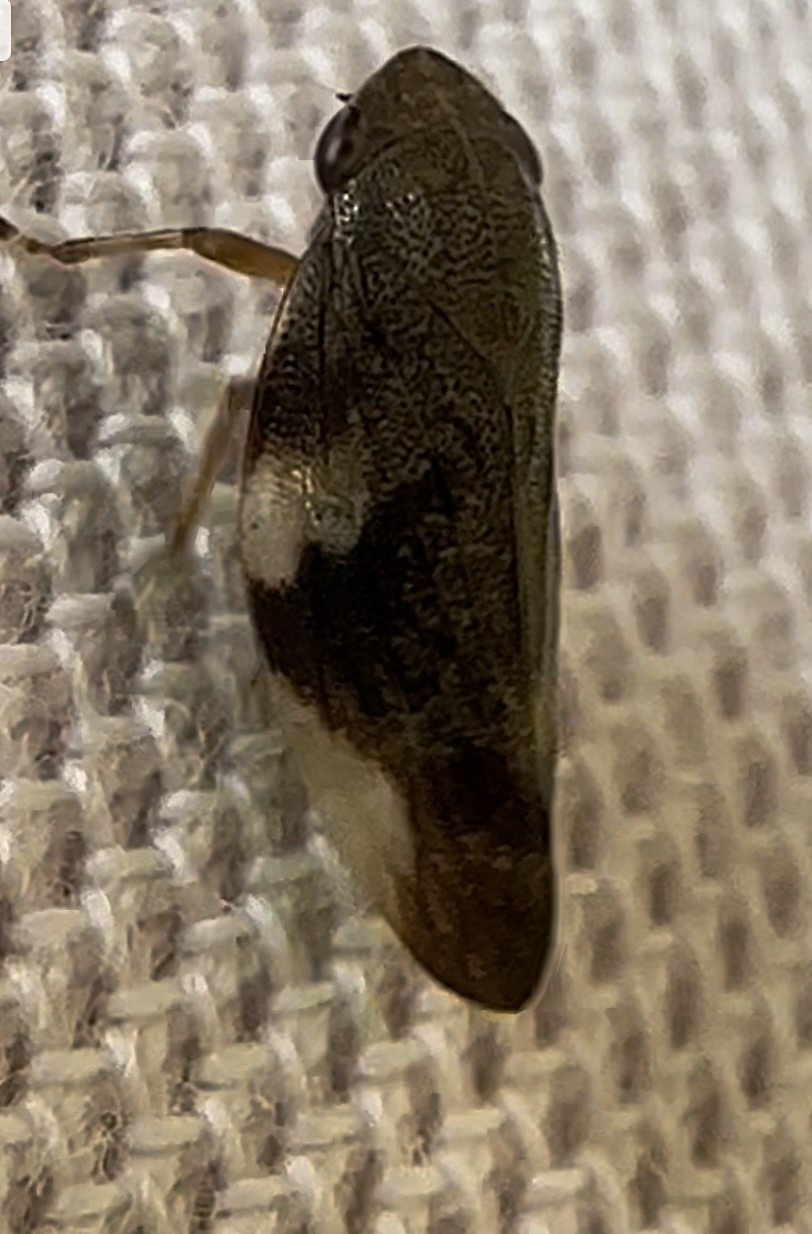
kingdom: Animalia
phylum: Arthropoda
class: Insecta
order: Hemiptera
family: Aphrophoridae
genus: Aphrophora
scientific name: Aphrophora alni
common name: European alder spittlebug
